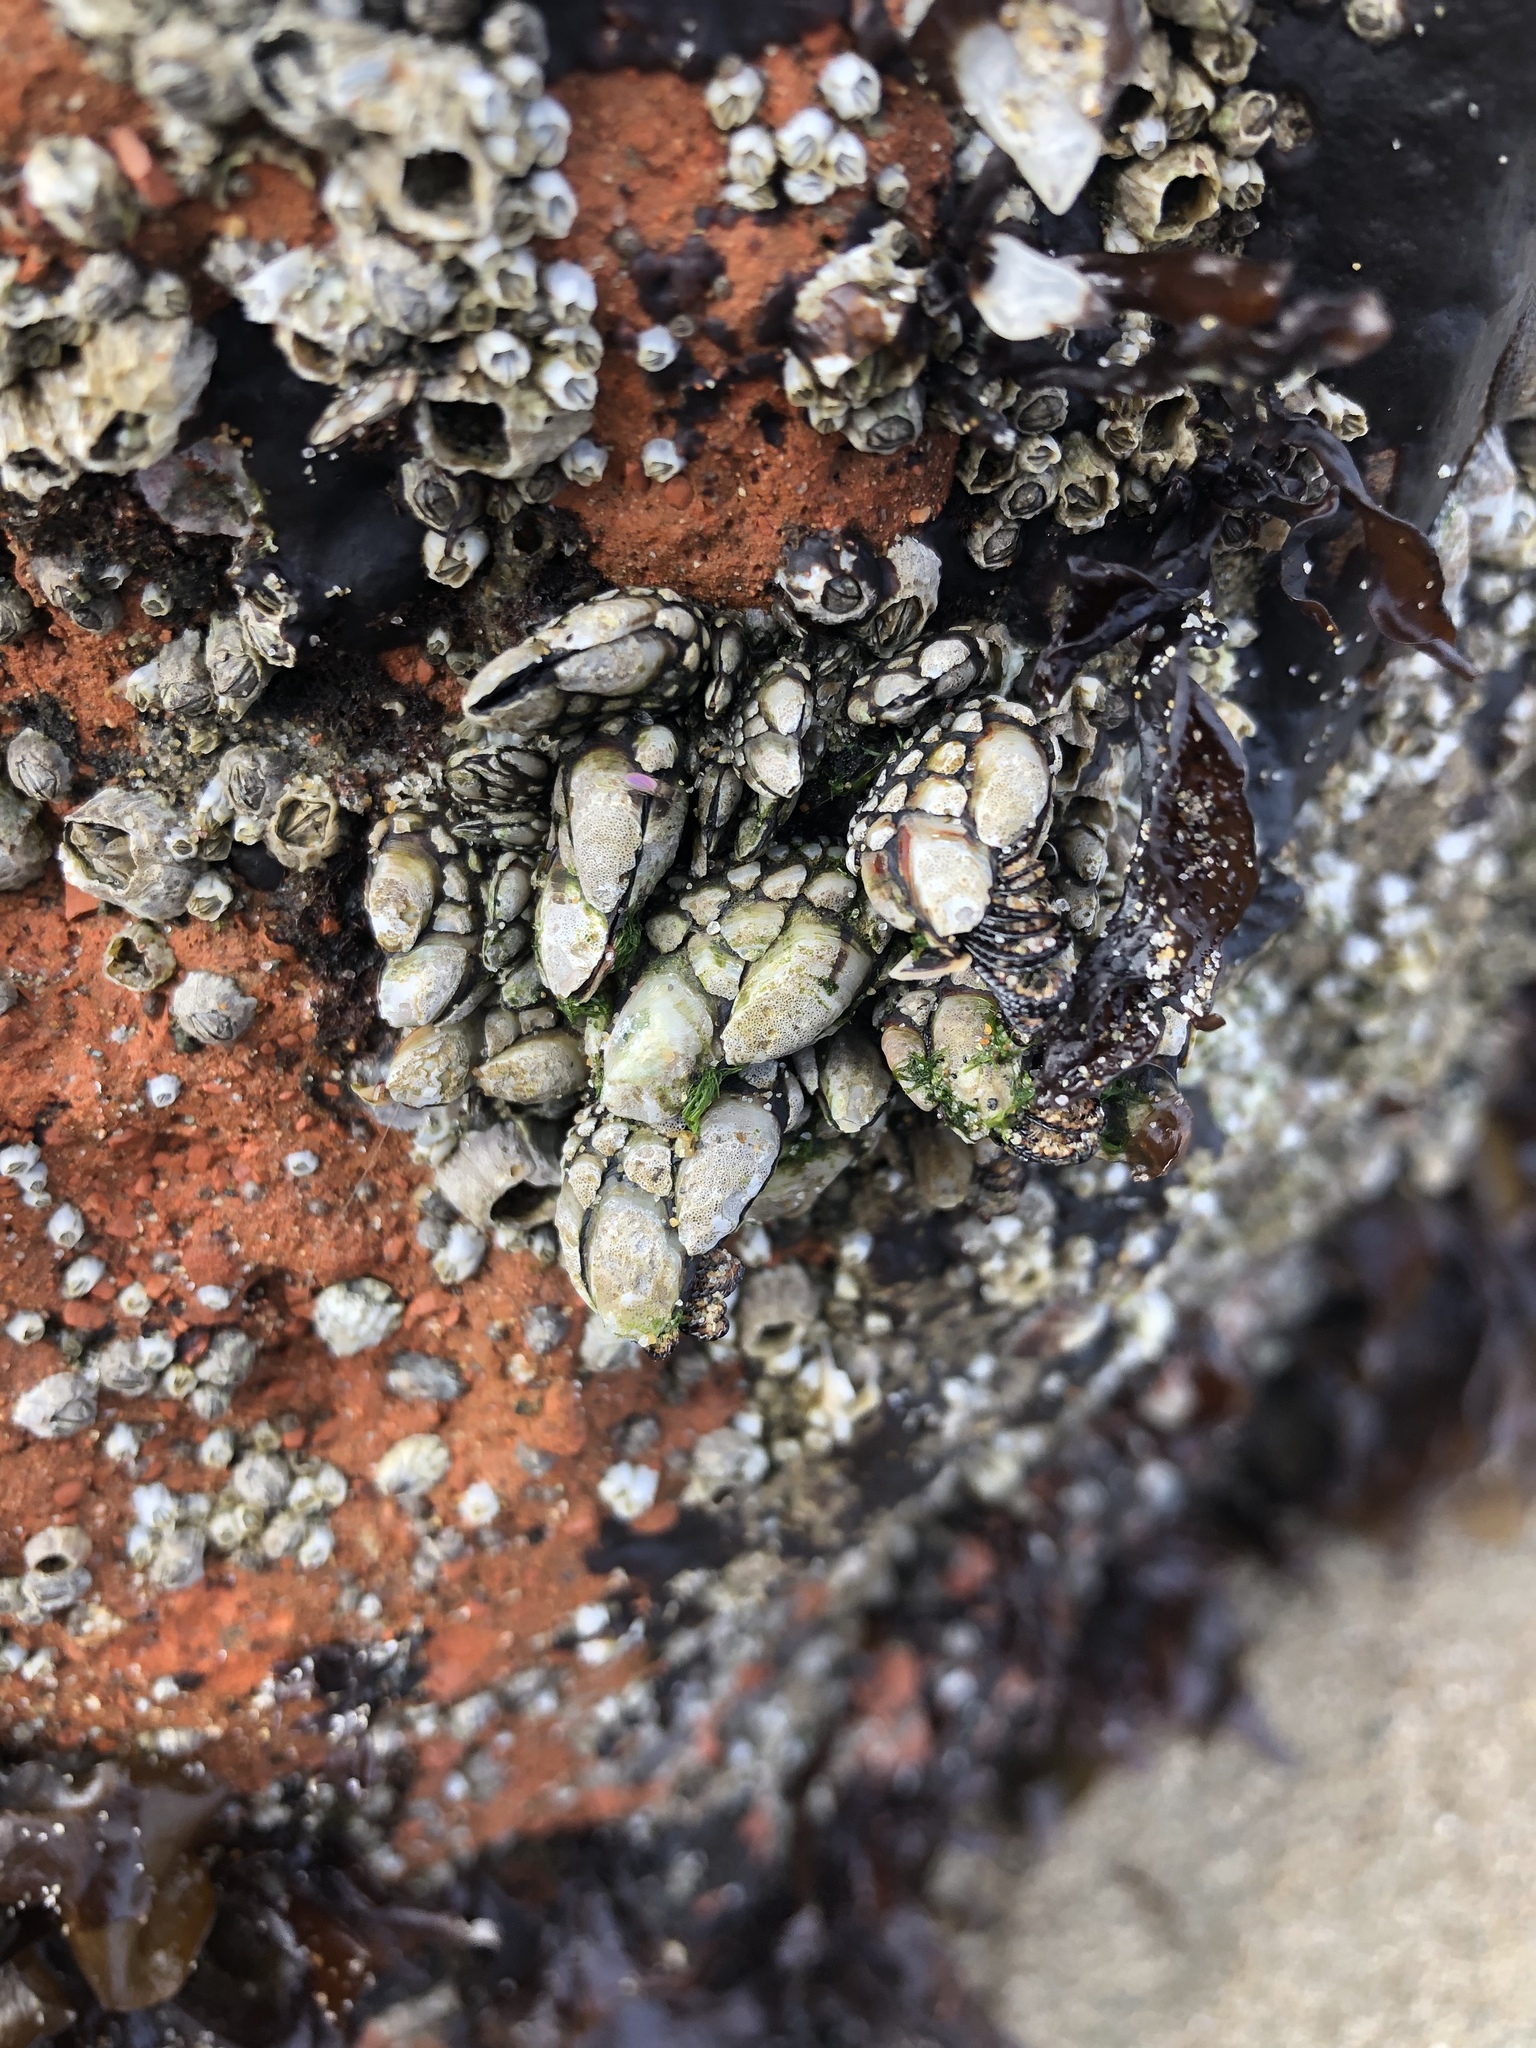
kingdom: Animalia
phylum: Arthropoda
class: Maxillopoda
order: Pedunculata
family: Pollicipedidae
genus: Pollicipes
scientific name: Pollicipes polymerus
